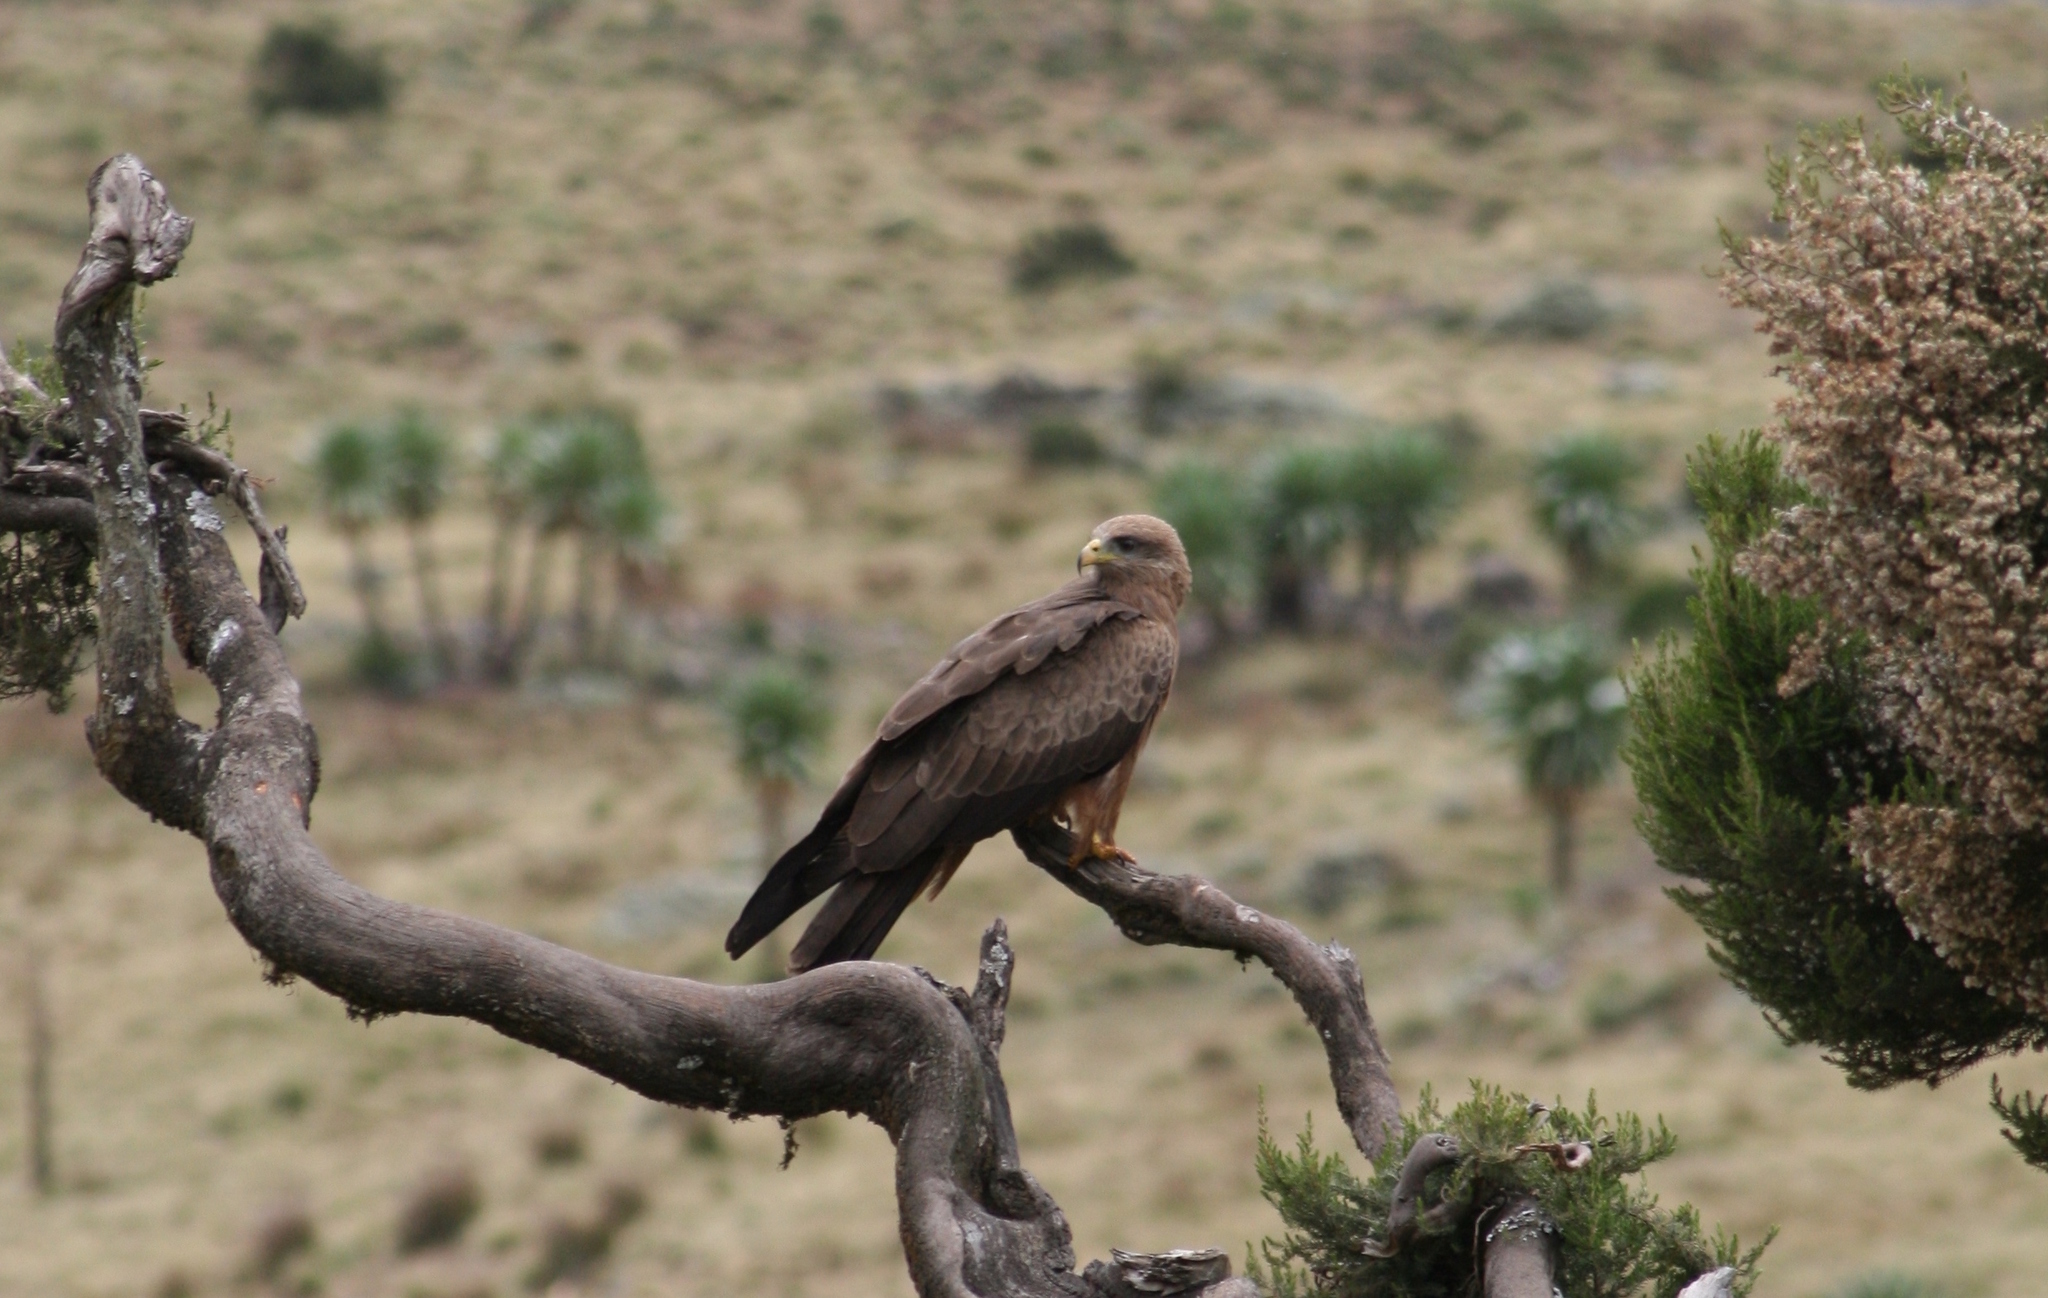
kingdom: Animalia
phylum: Chordata
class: Aves
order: Accipitriformes
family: Accipitridae
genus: Milvus
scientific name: Milvus aegyptius
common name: Yellow-billed kite
